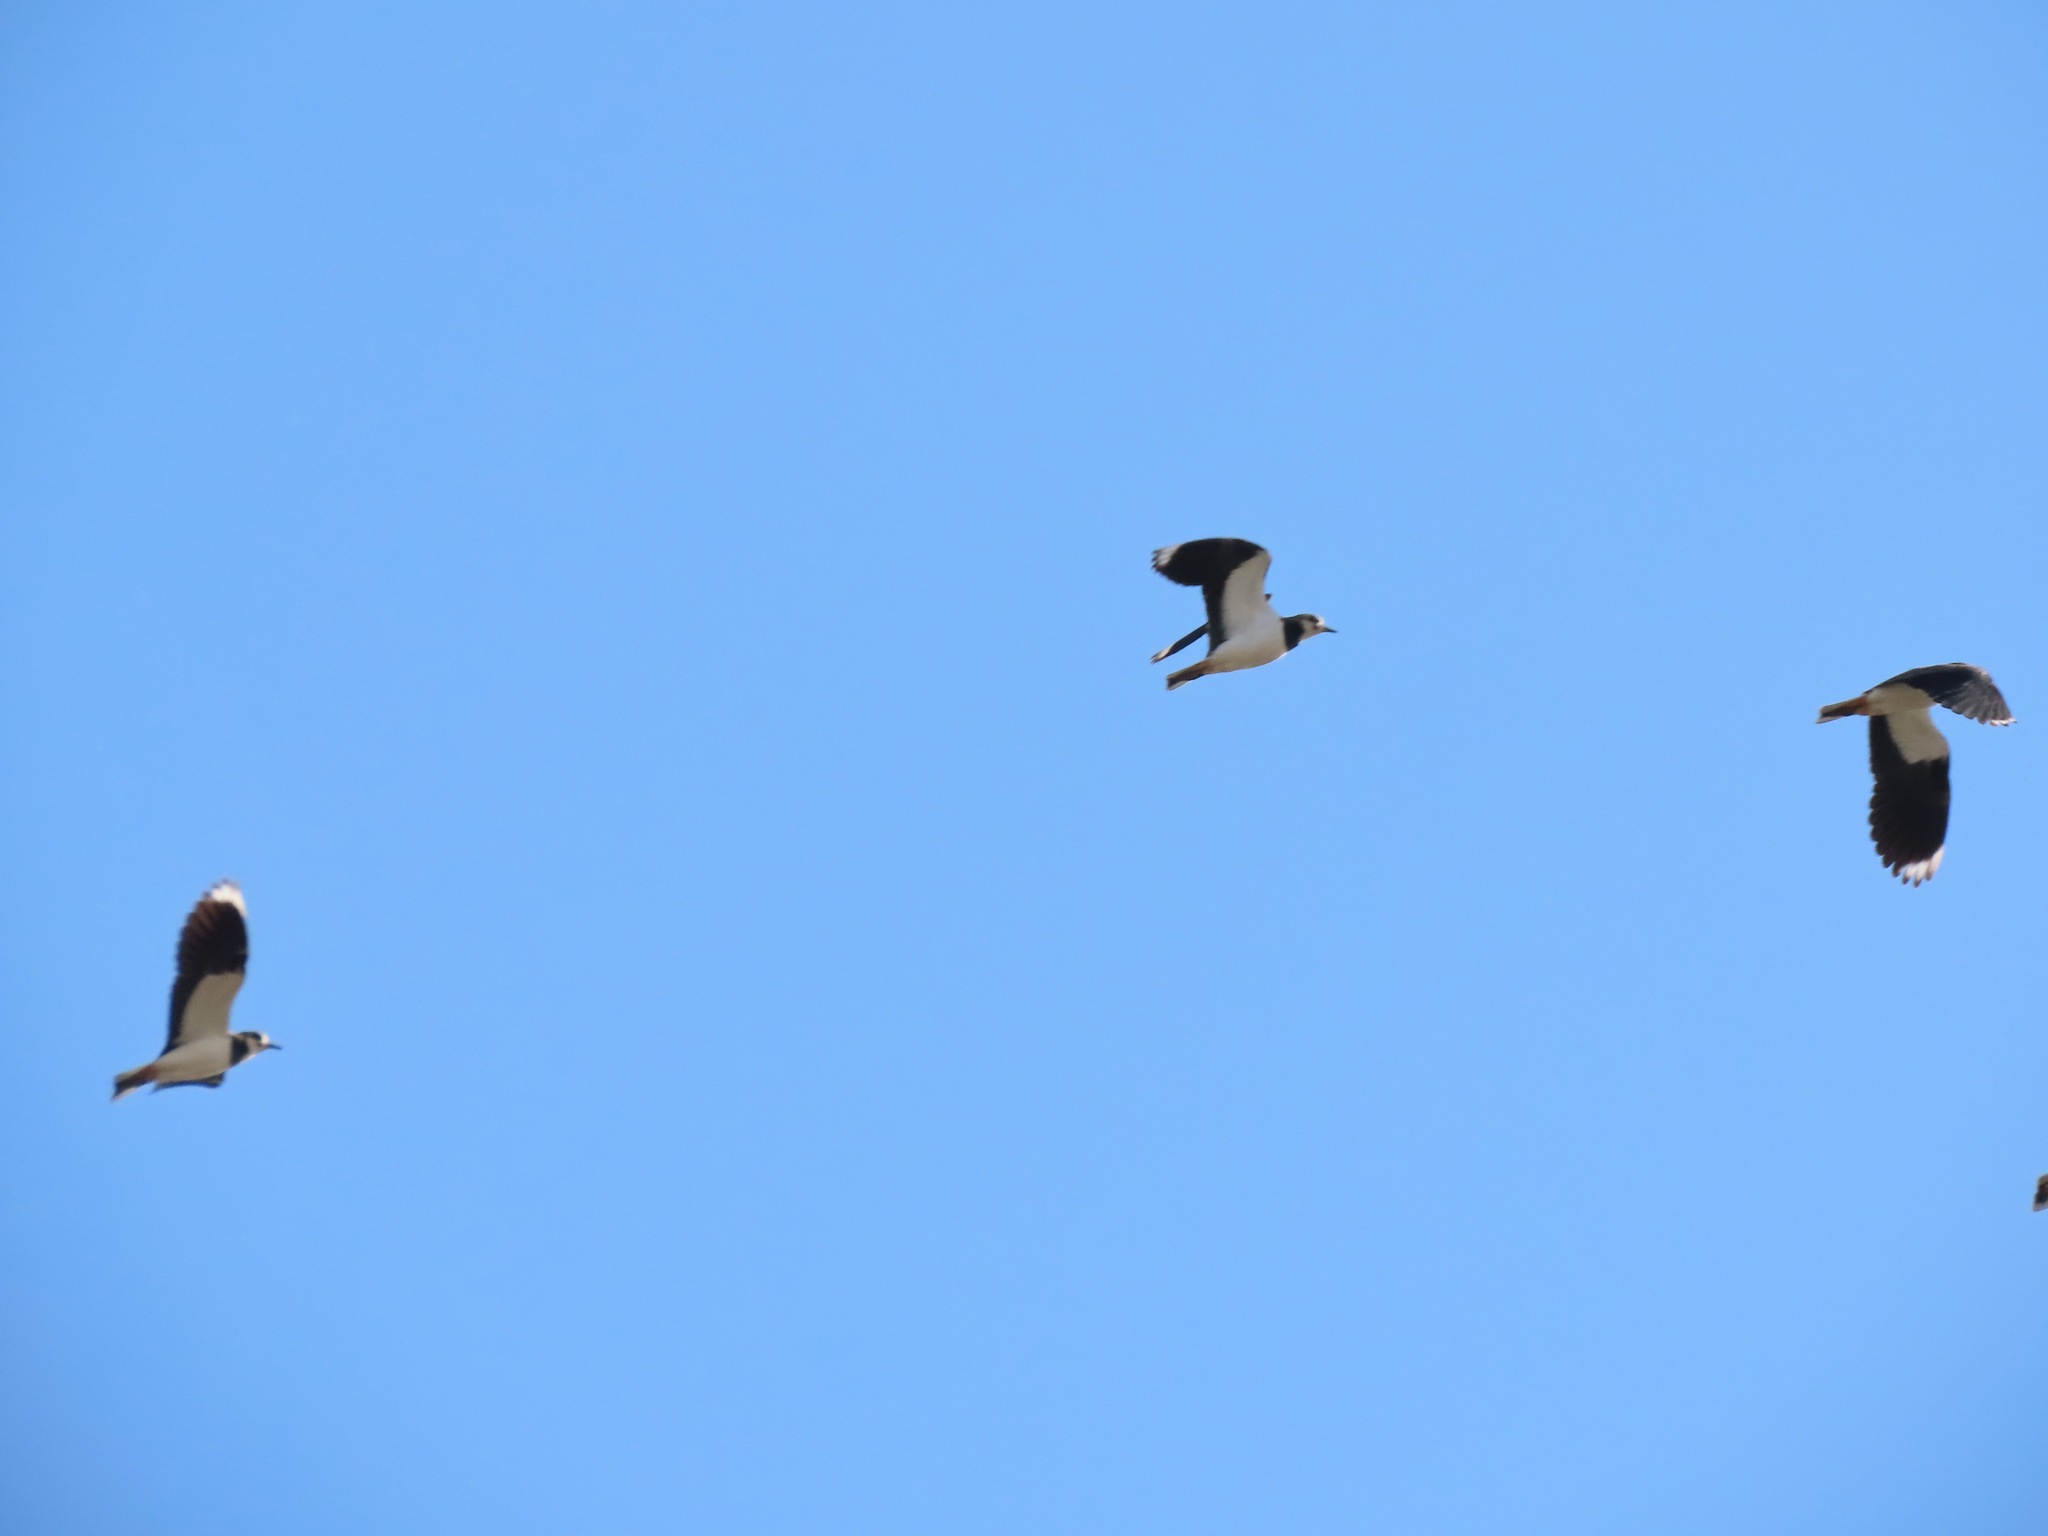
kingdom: Animalia
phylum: Chordata
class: Aves
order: Charadriiformes
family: Charadriidae
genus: Vanellus
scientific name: Vanellus vanellus
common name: Northern lapwing
